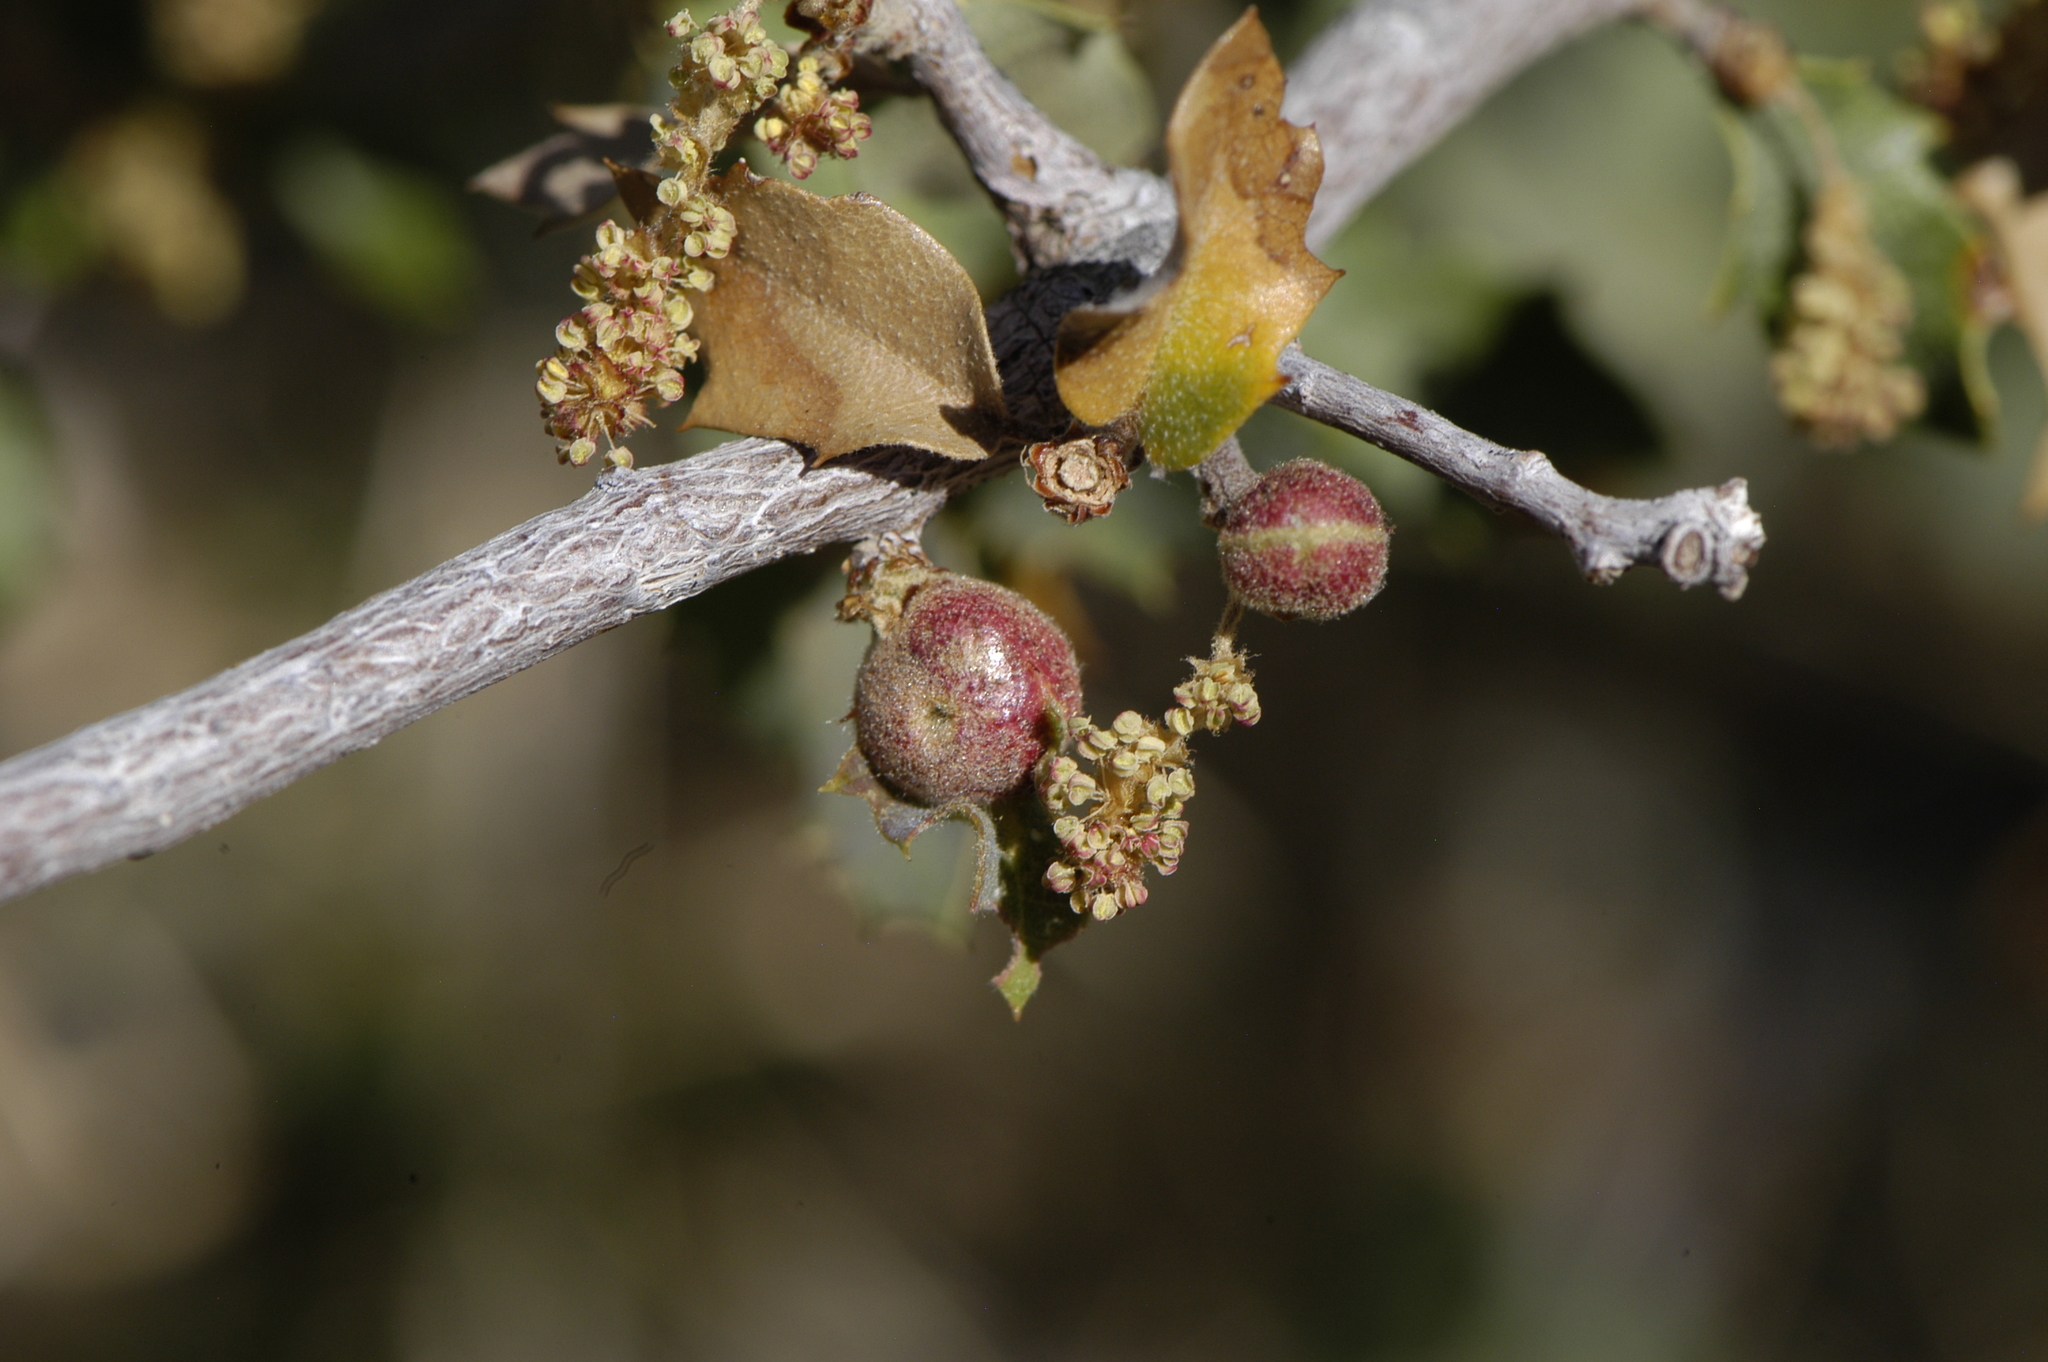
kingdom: Animalia
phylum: Arthropoda
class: Insecta
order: Hymenoptera
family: Cynipidae
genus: Andricus
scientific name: Andricus
